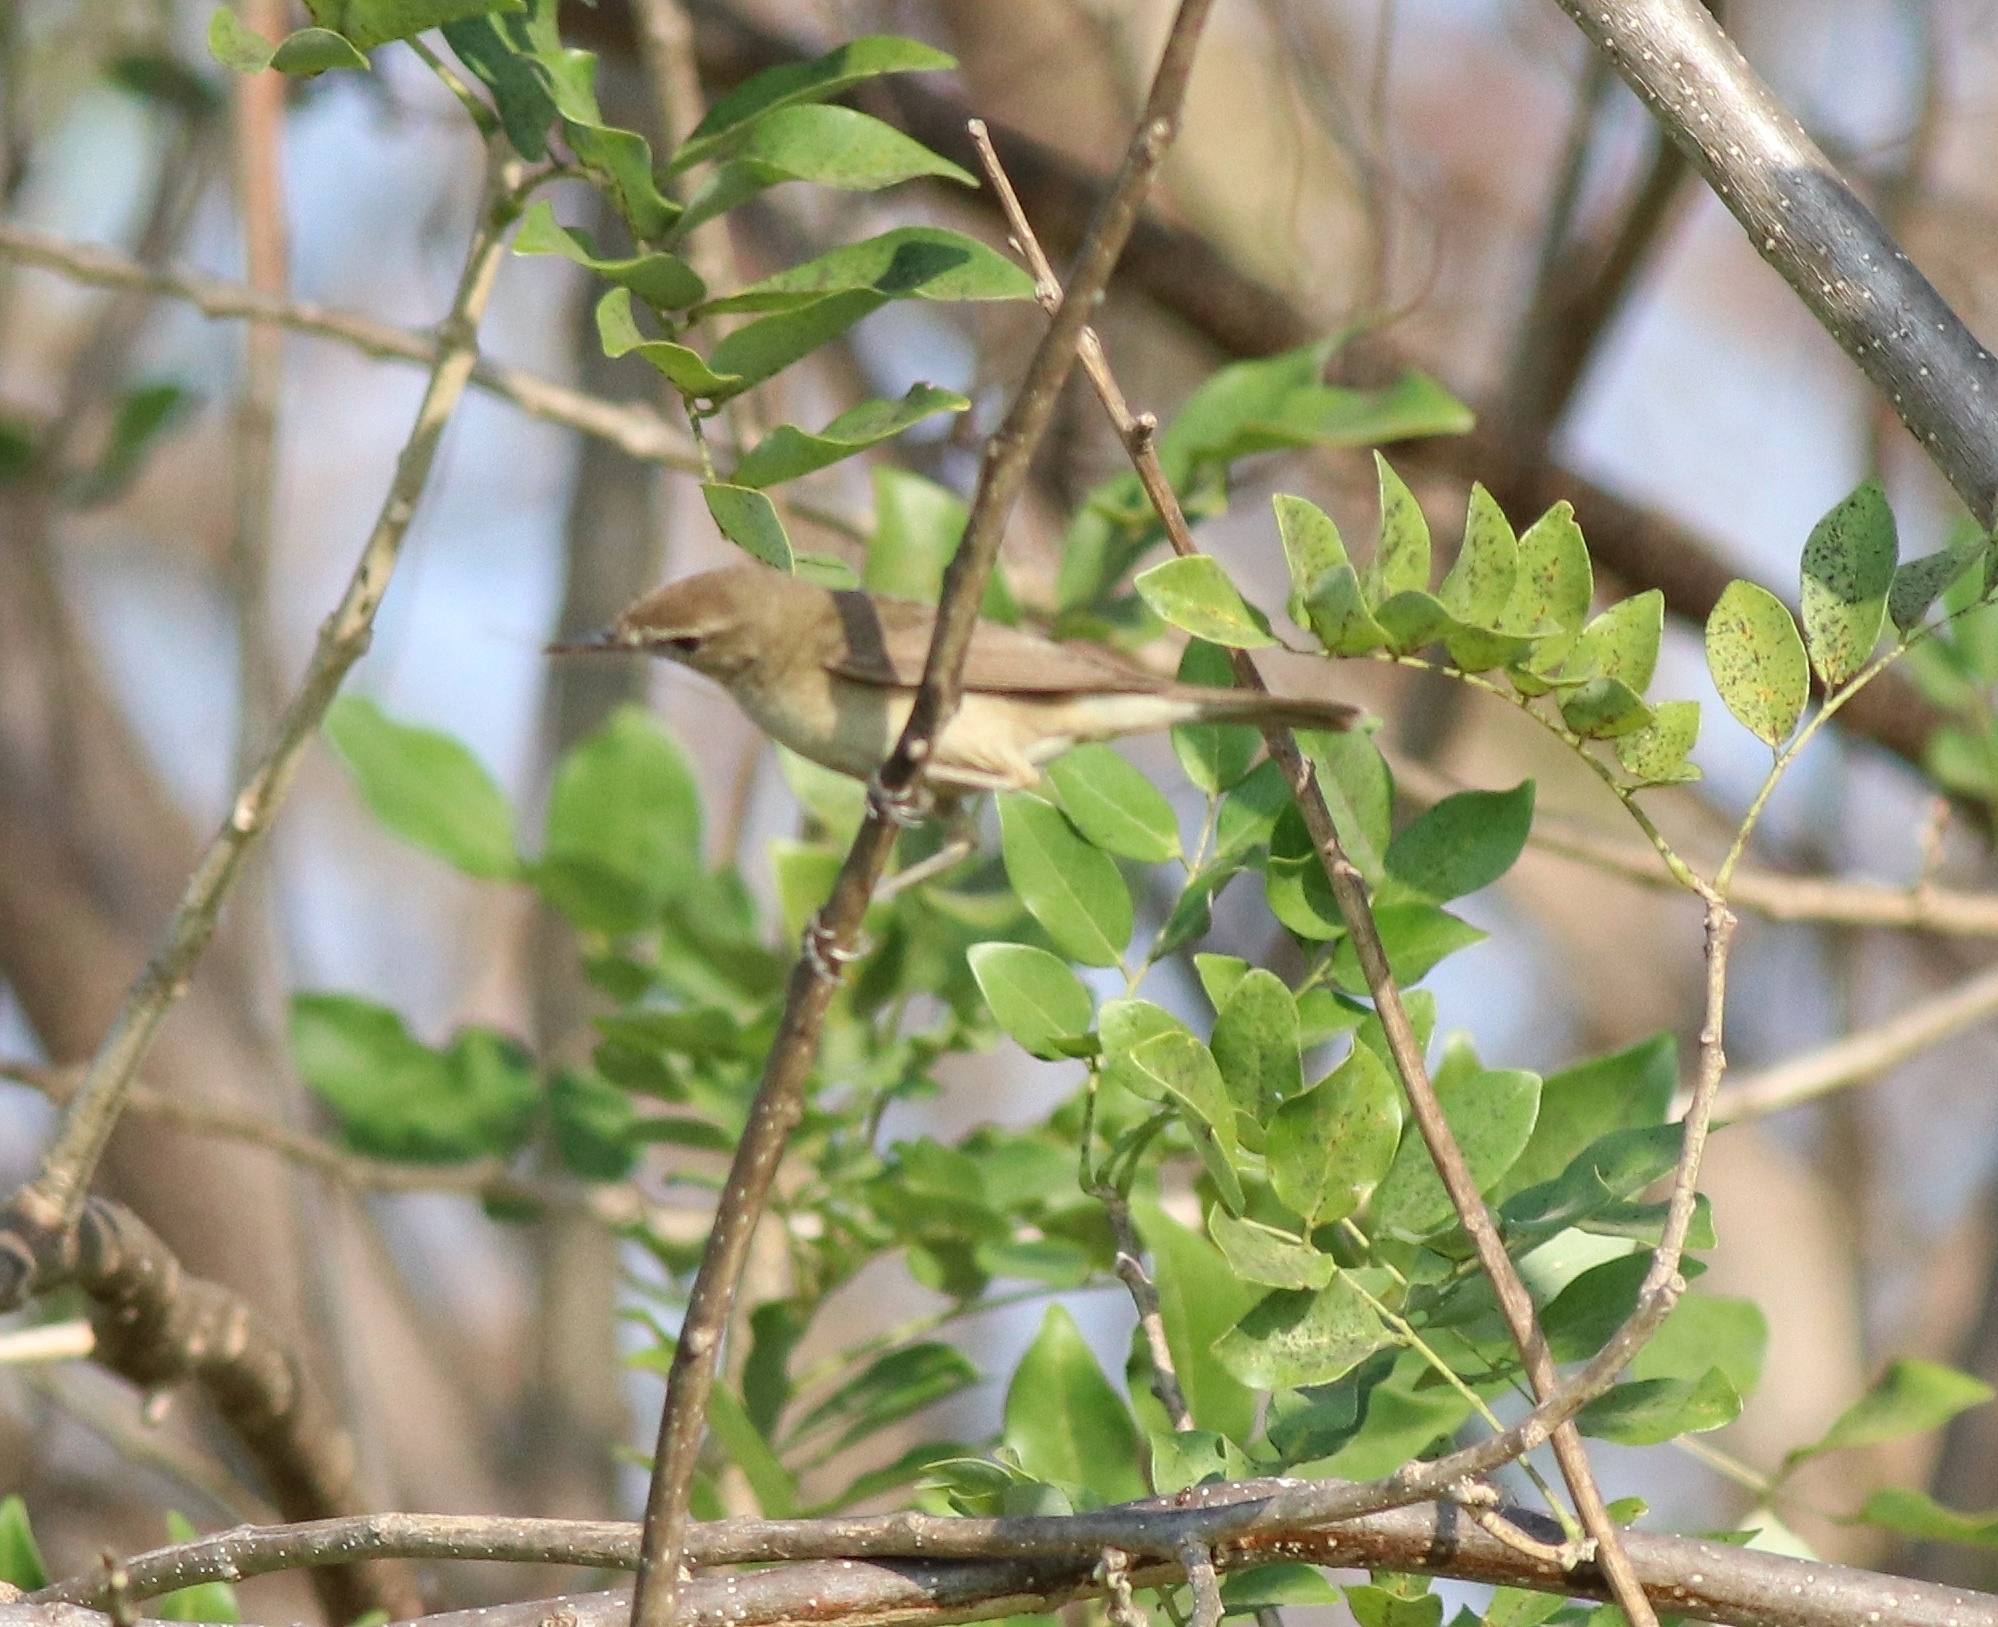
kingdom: Animalia
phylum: Chordata
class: Aves
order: Passeriformes
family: Acrocephalidae
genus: Acrocephalus
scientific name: Acrocephalus dumetorum
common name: Blyth's reed warbler
